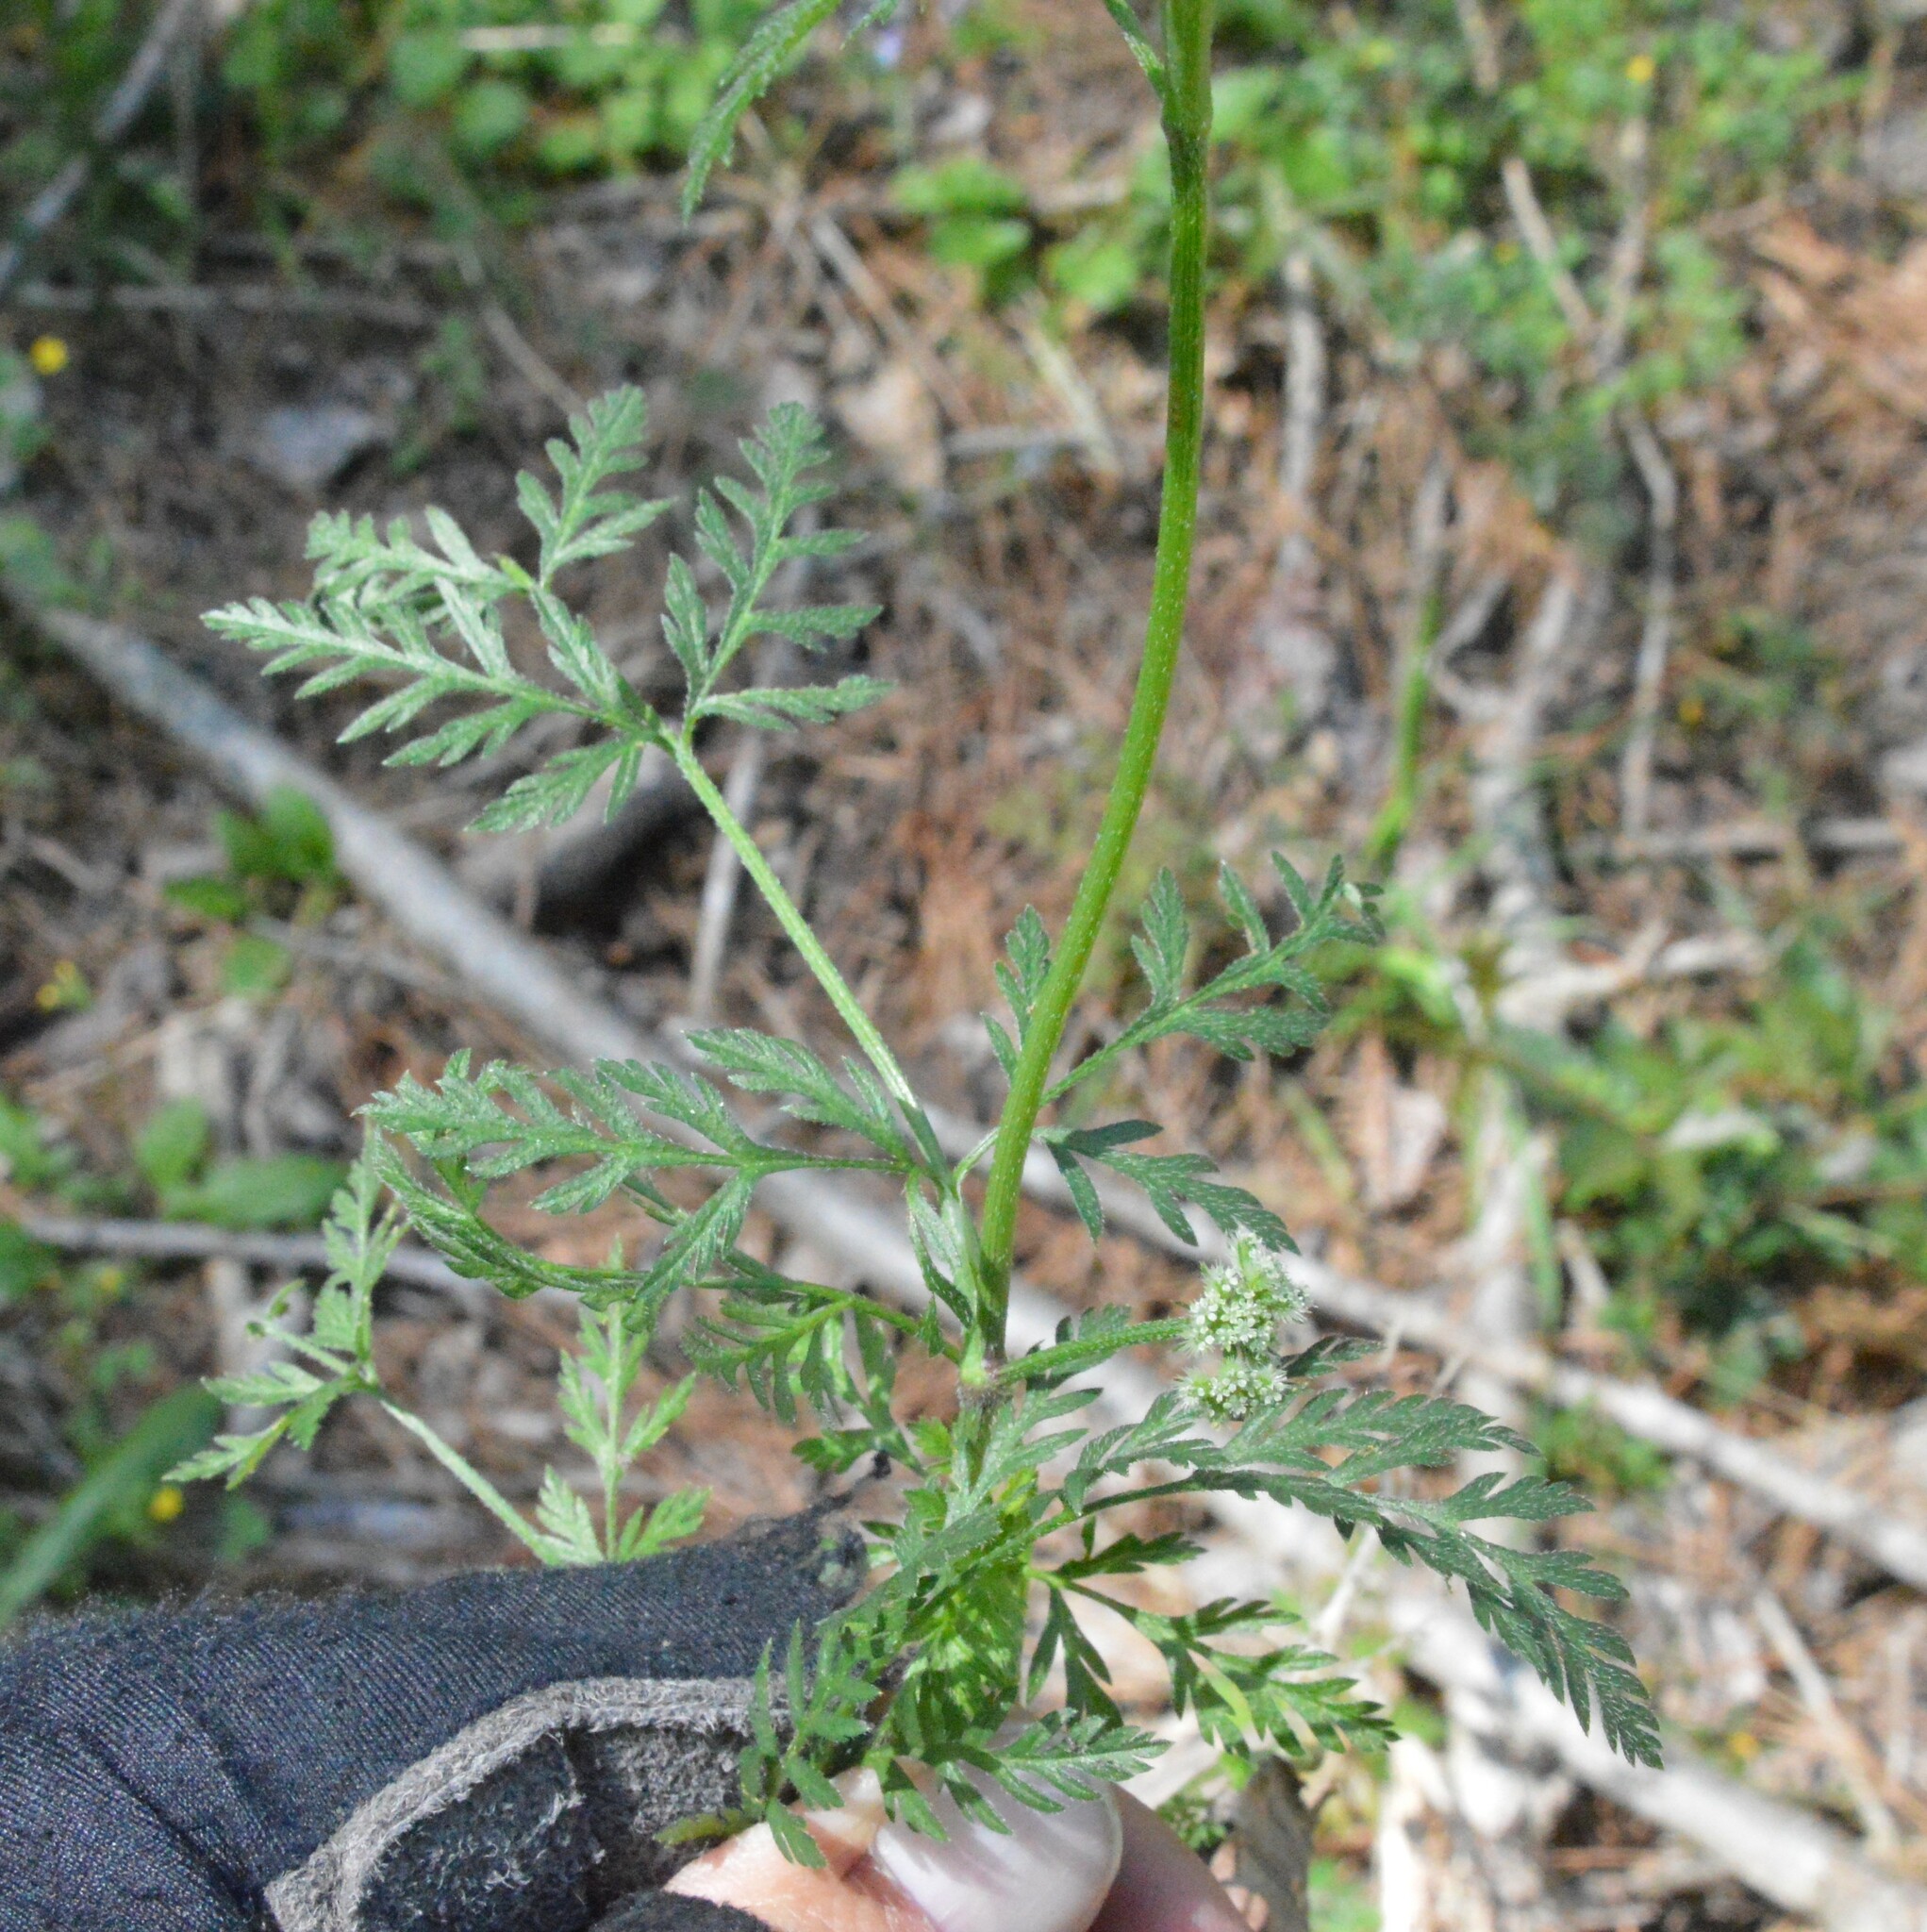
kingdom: Plantae
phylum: Tracheophyta
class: Magnoliopsida
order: Apiales
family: Apiaceae
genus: Torilis
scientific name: Torilis nodosa
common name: Knotted hedge-parsley
